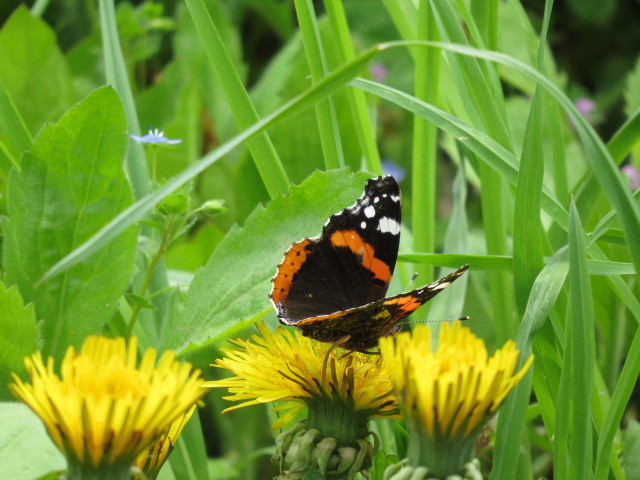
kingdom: Animalia
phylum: Arthropoda
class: Insecta
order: Lepidoptera
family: Nymphalidae
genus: Vanessa
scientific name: Vanessa atalanta
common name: Red admiral
